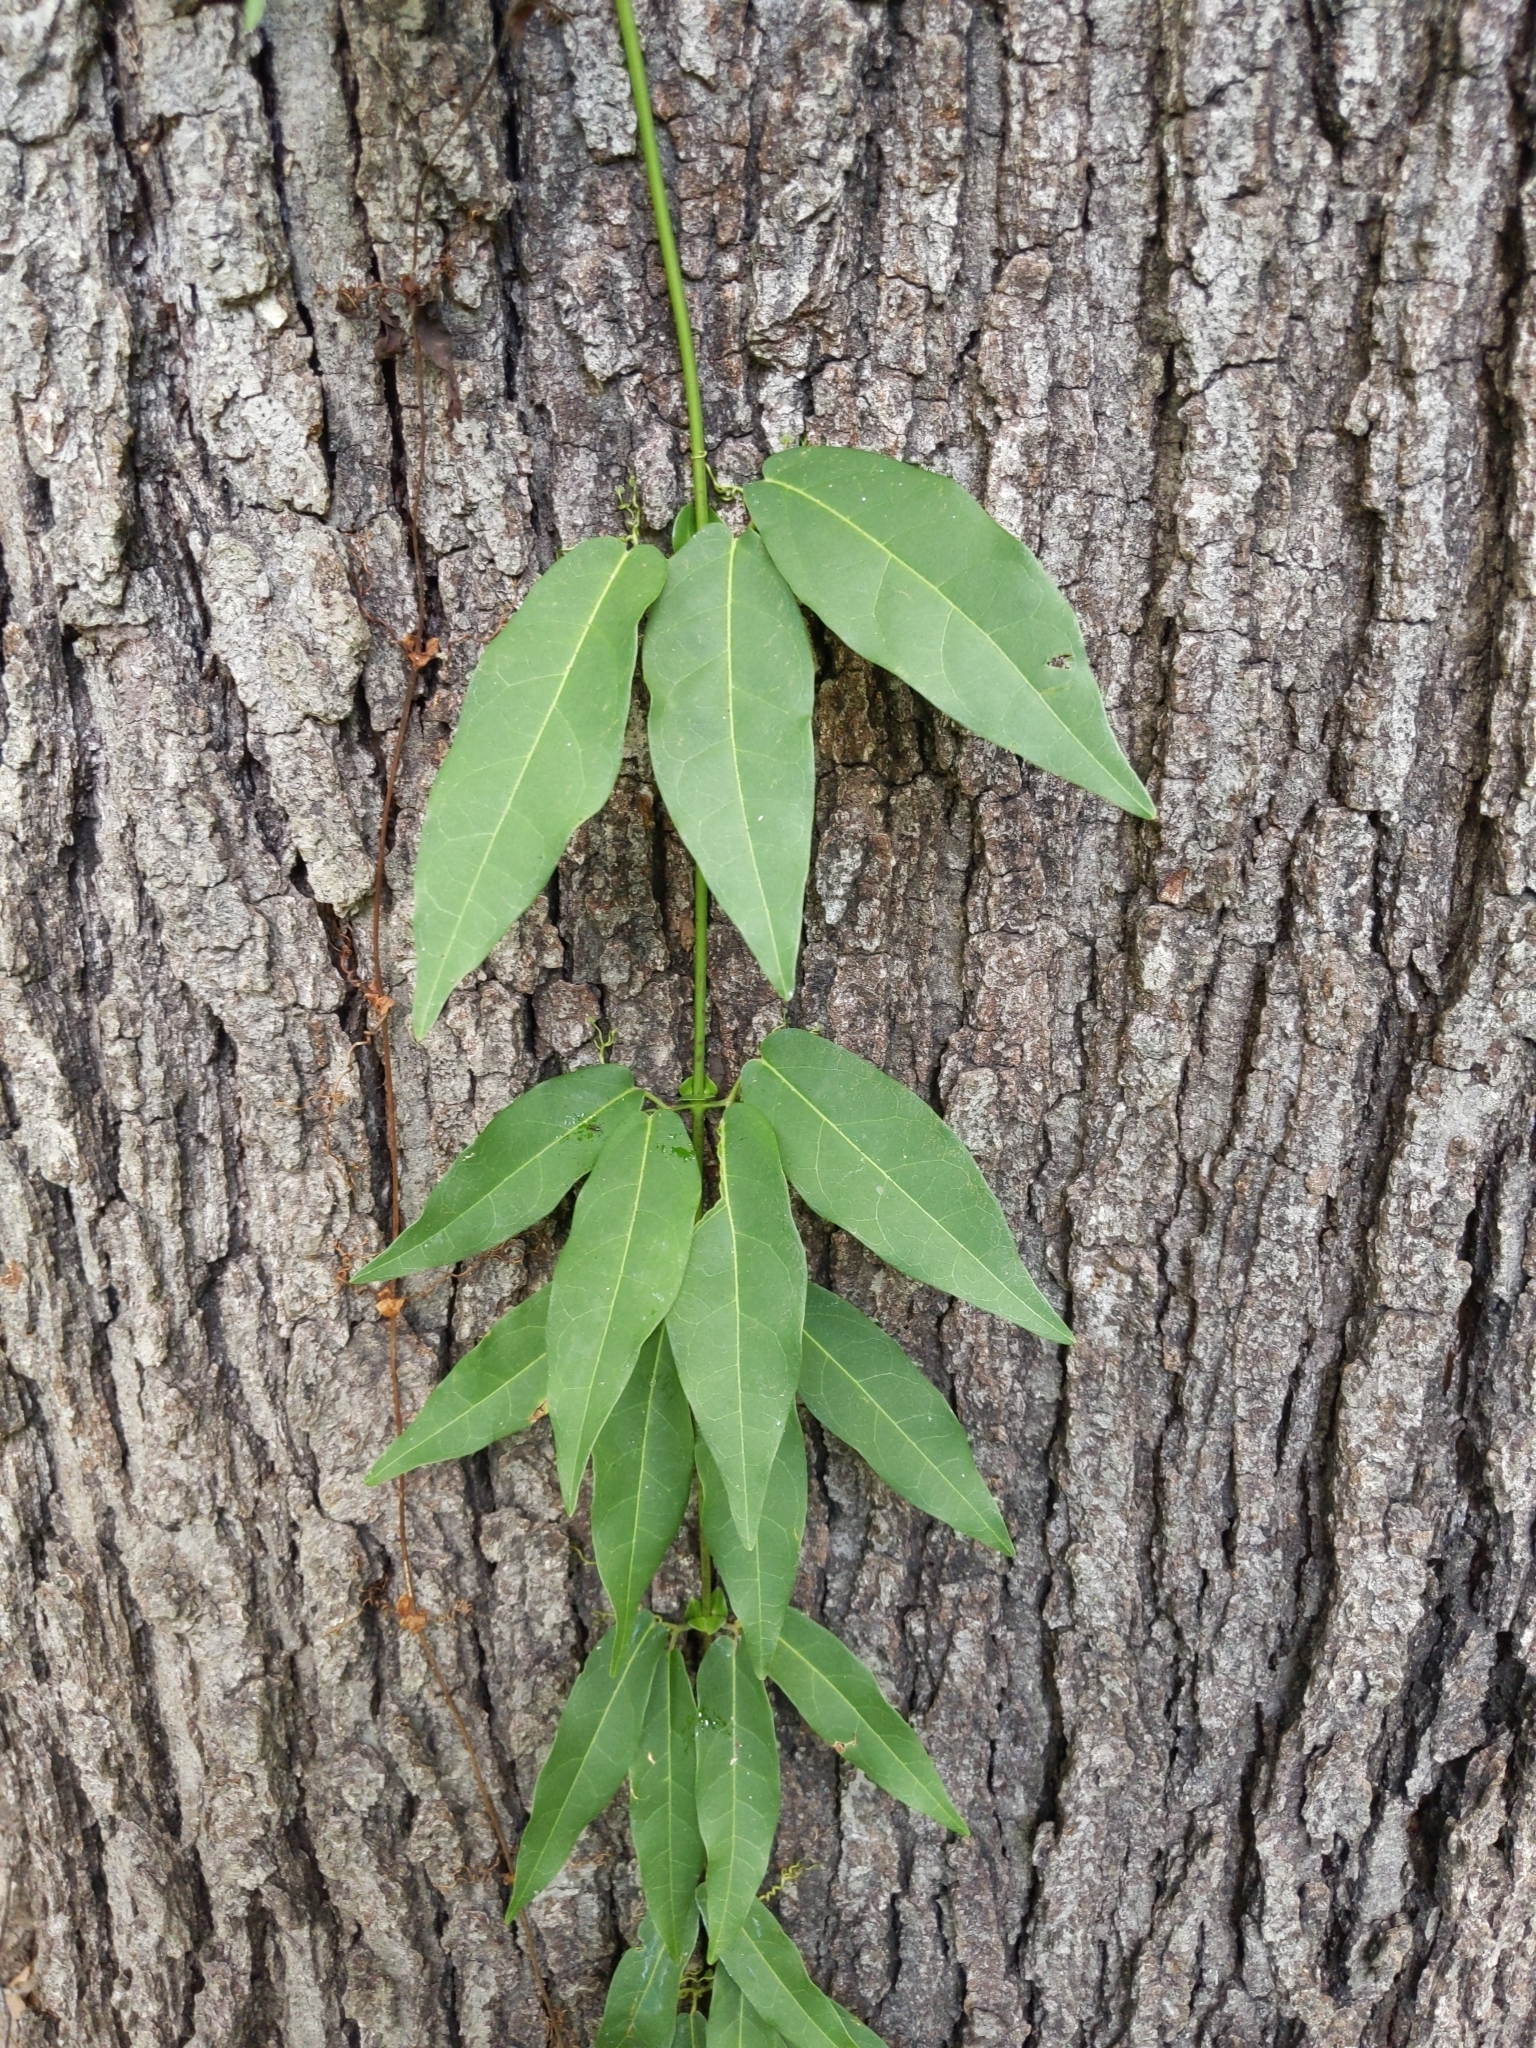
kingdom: Plantae
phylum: Tracheophyta
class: Magnoliopsida
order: Lamiales
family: Bignoniaceae
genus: Bignonia
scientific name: Bignonia capreolata
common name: Crossvine
